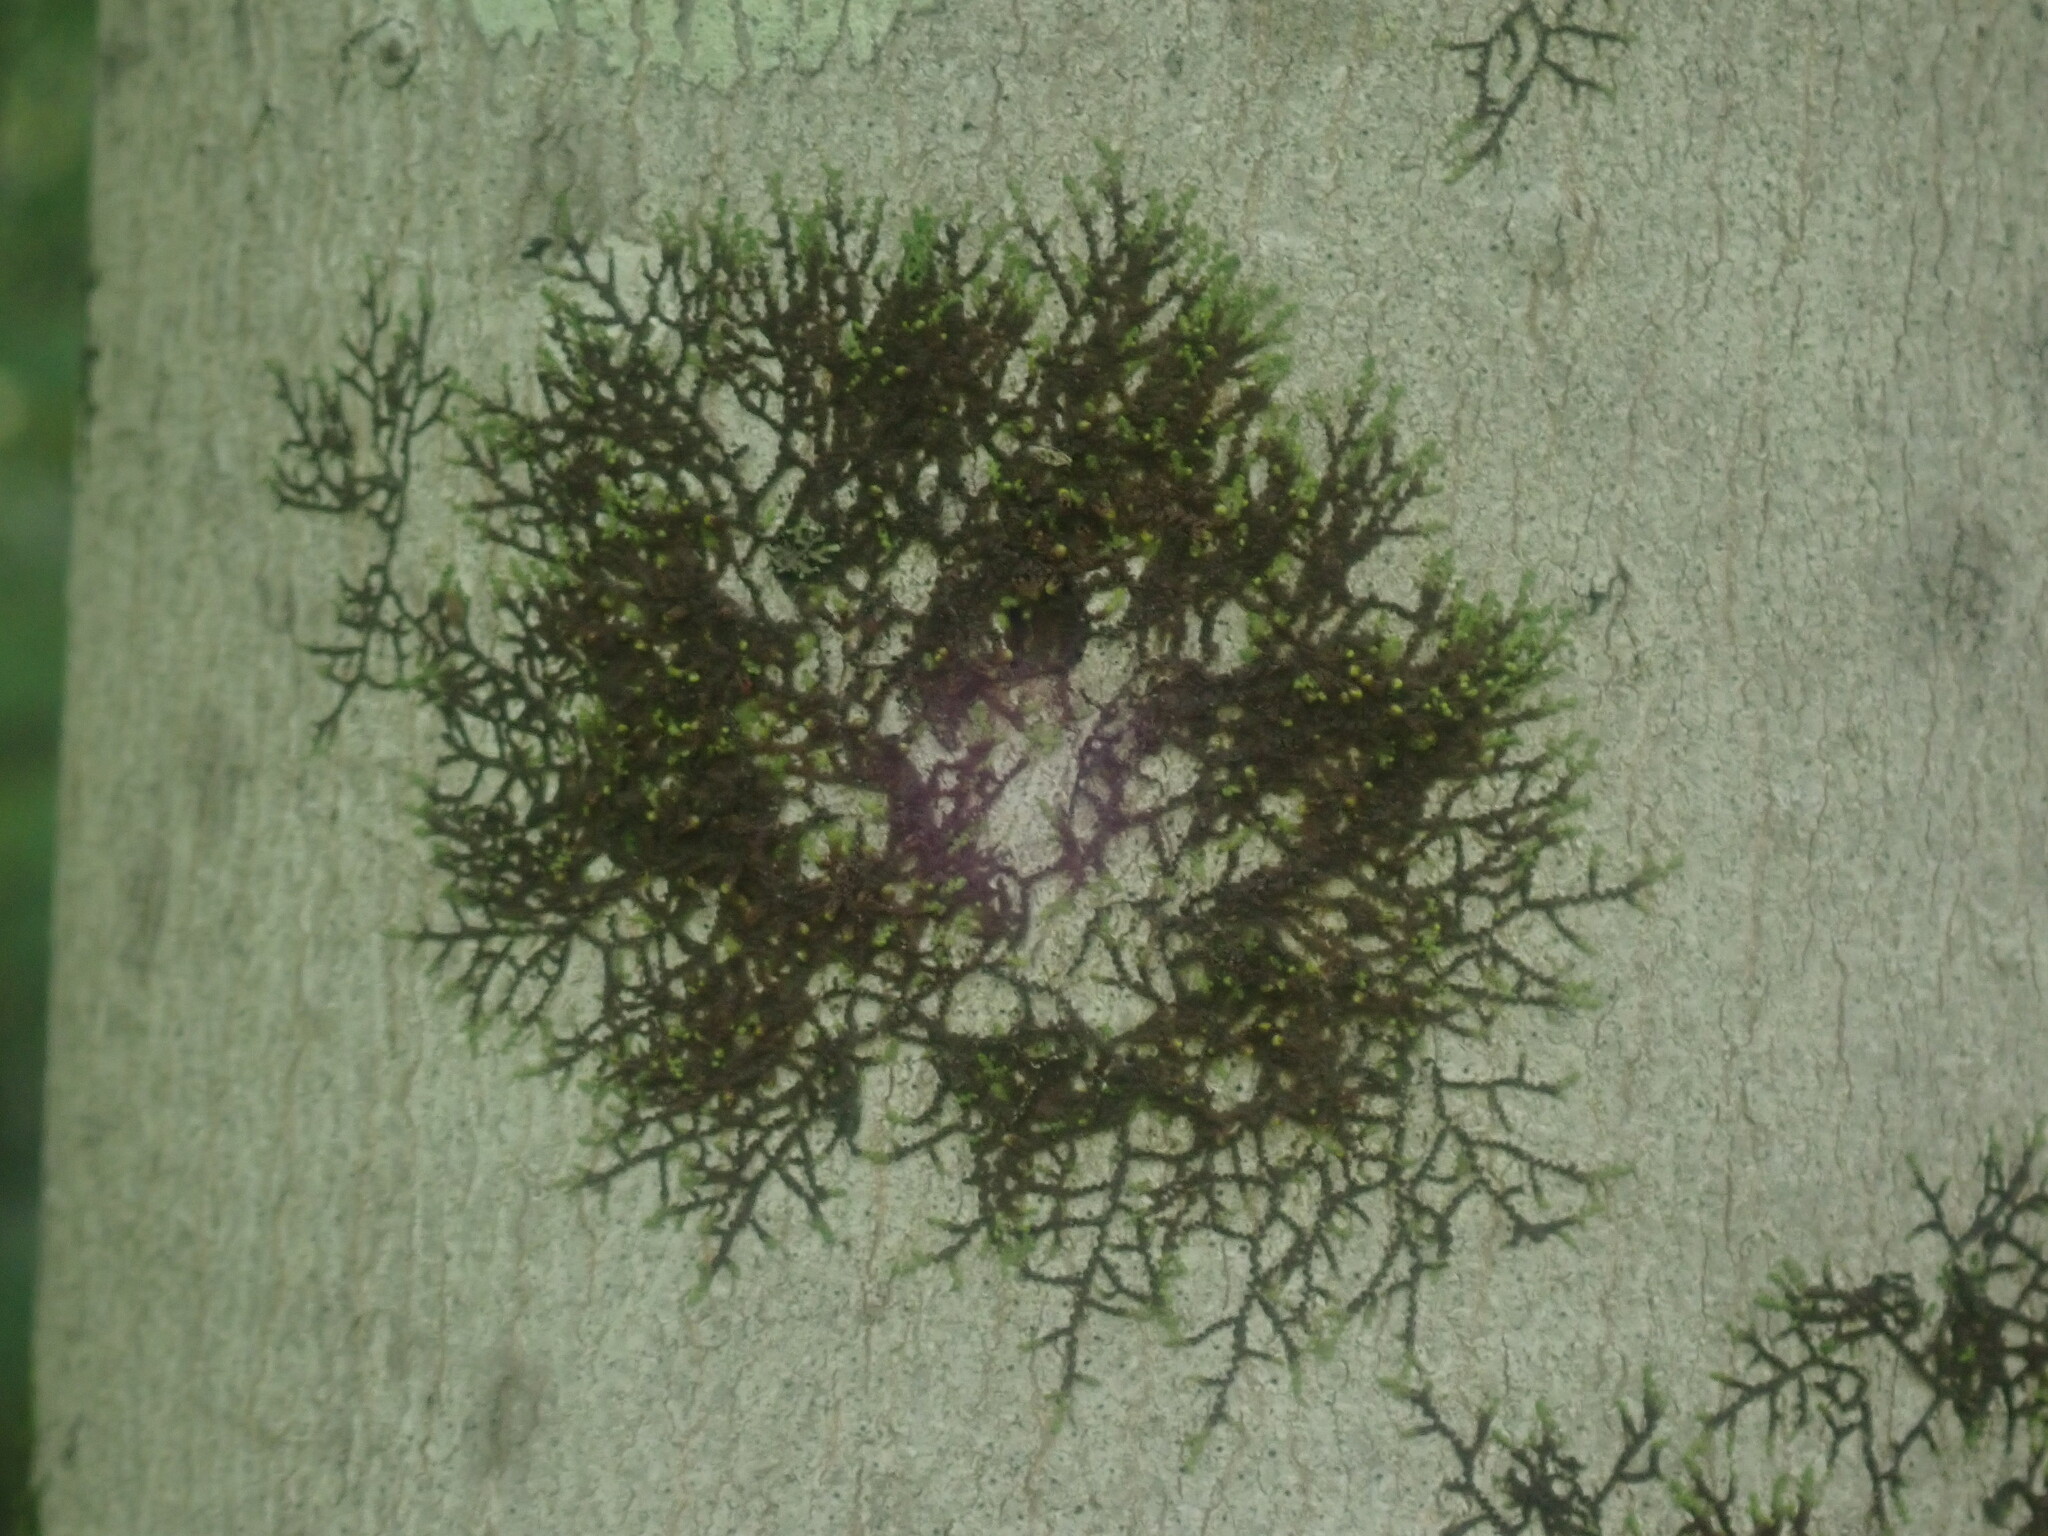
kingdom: Plantae
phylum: Marchantiophyta
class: Jungermanniopsida
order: Porellales
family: Frullaniaceae
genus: Frullania
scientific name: Frullania
